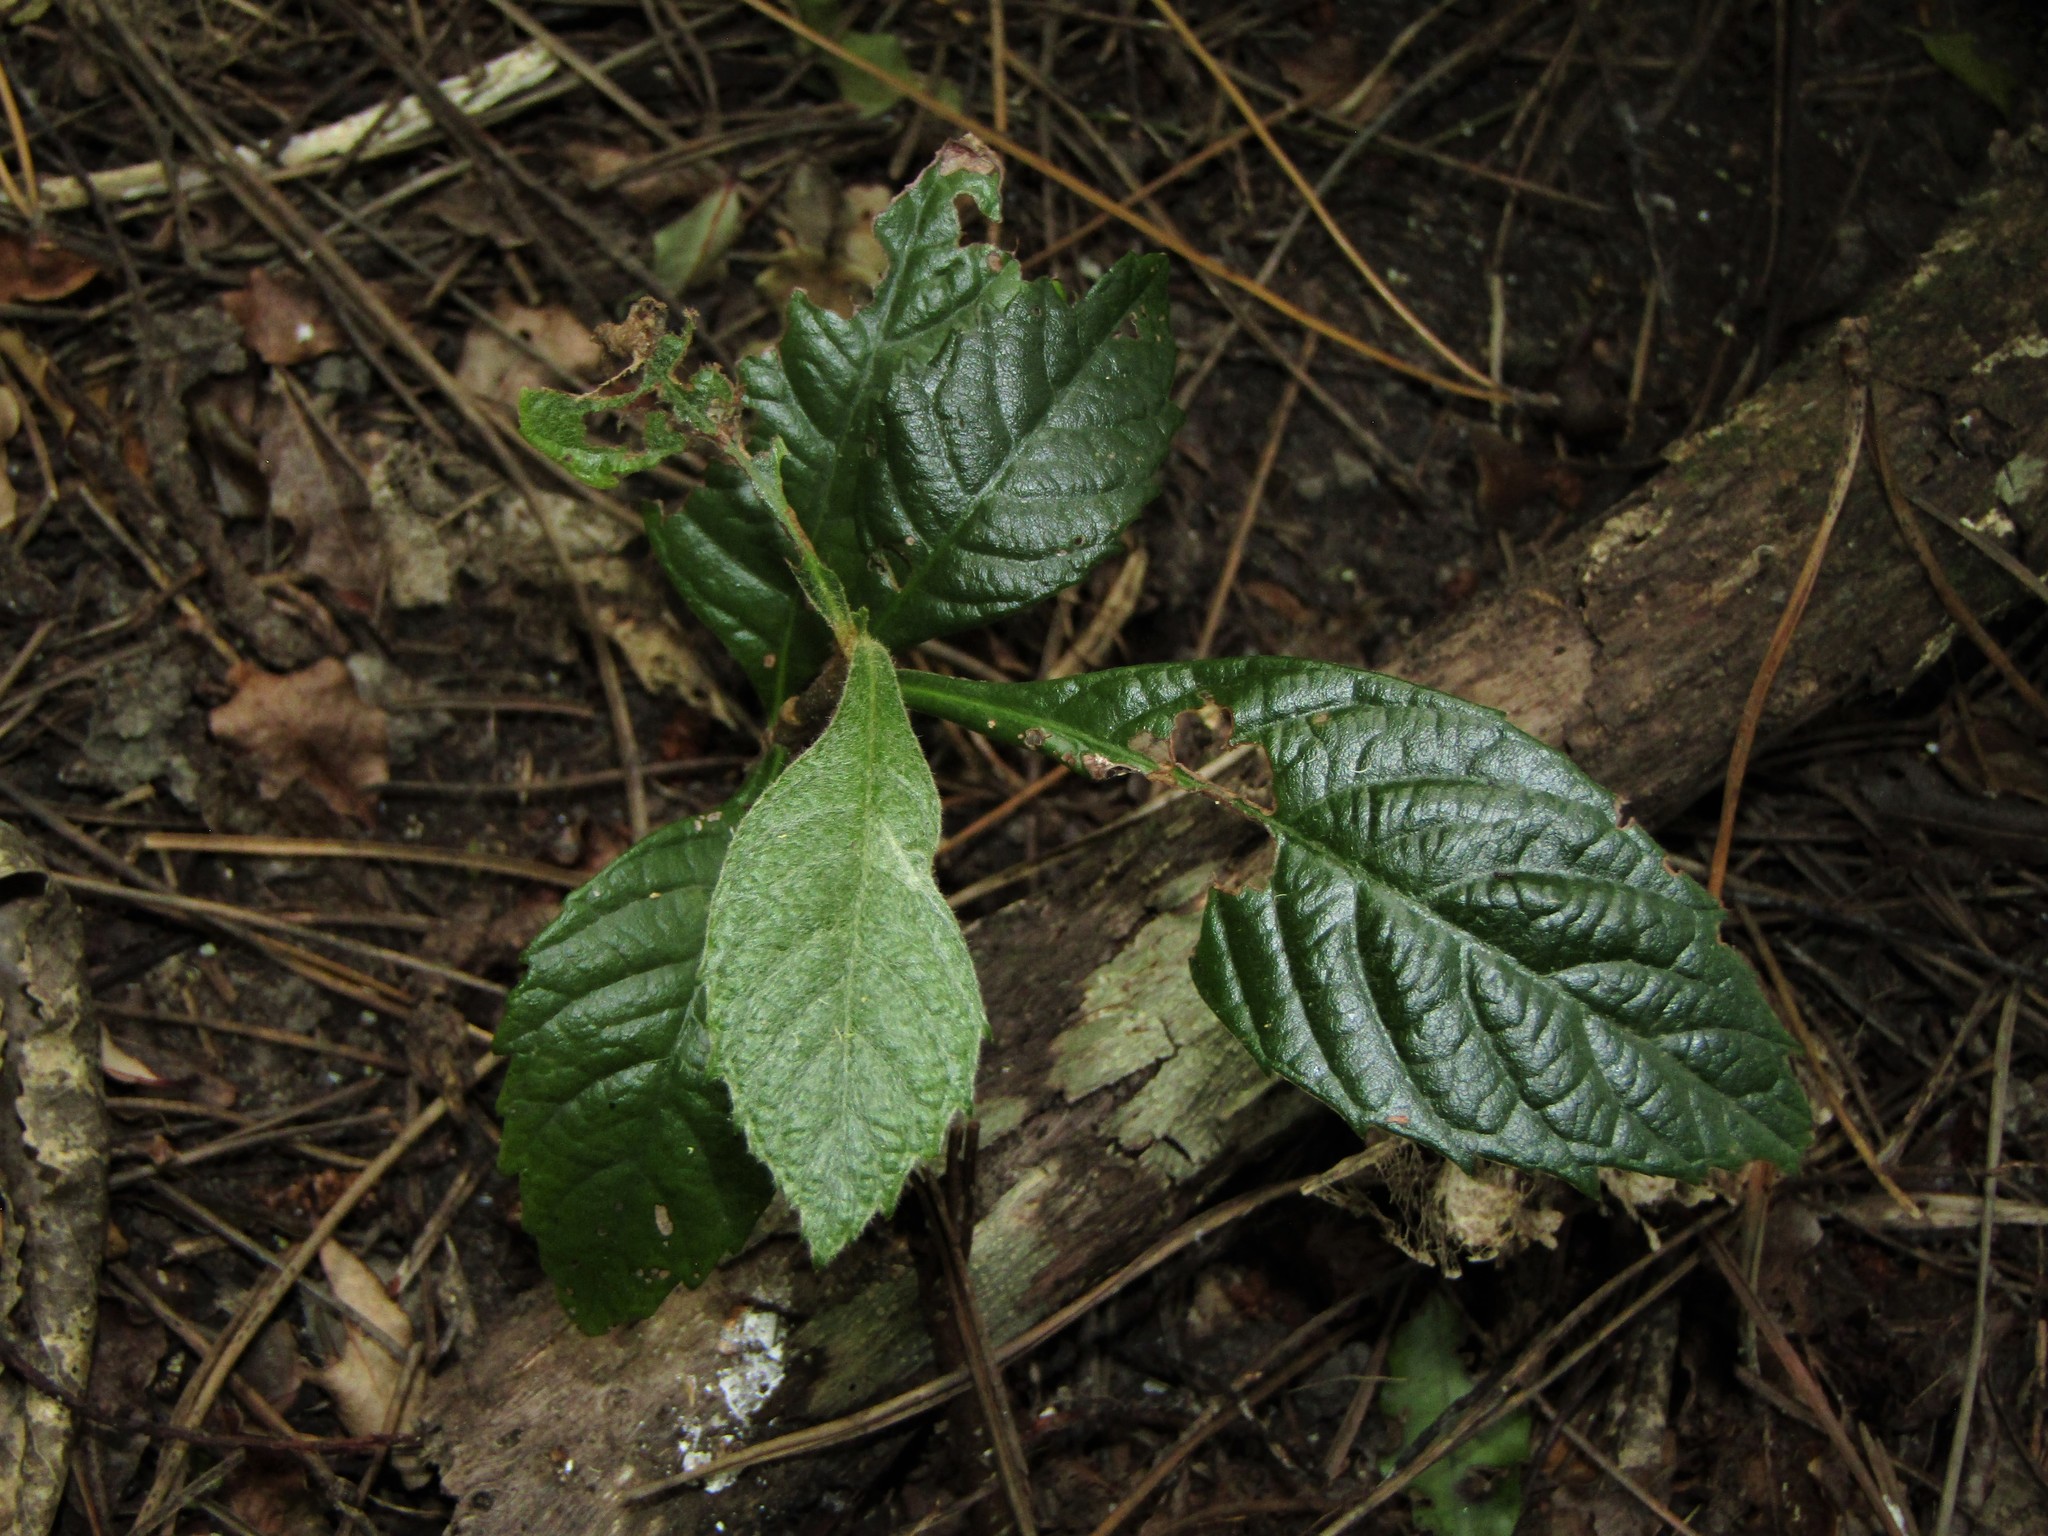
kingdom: Plantae
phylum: Tracheophyta
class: Magnoliopsida
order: Rosales
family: Rosaceae
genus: Rhaphiolepis
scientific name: Rhaphiolepis bibas
